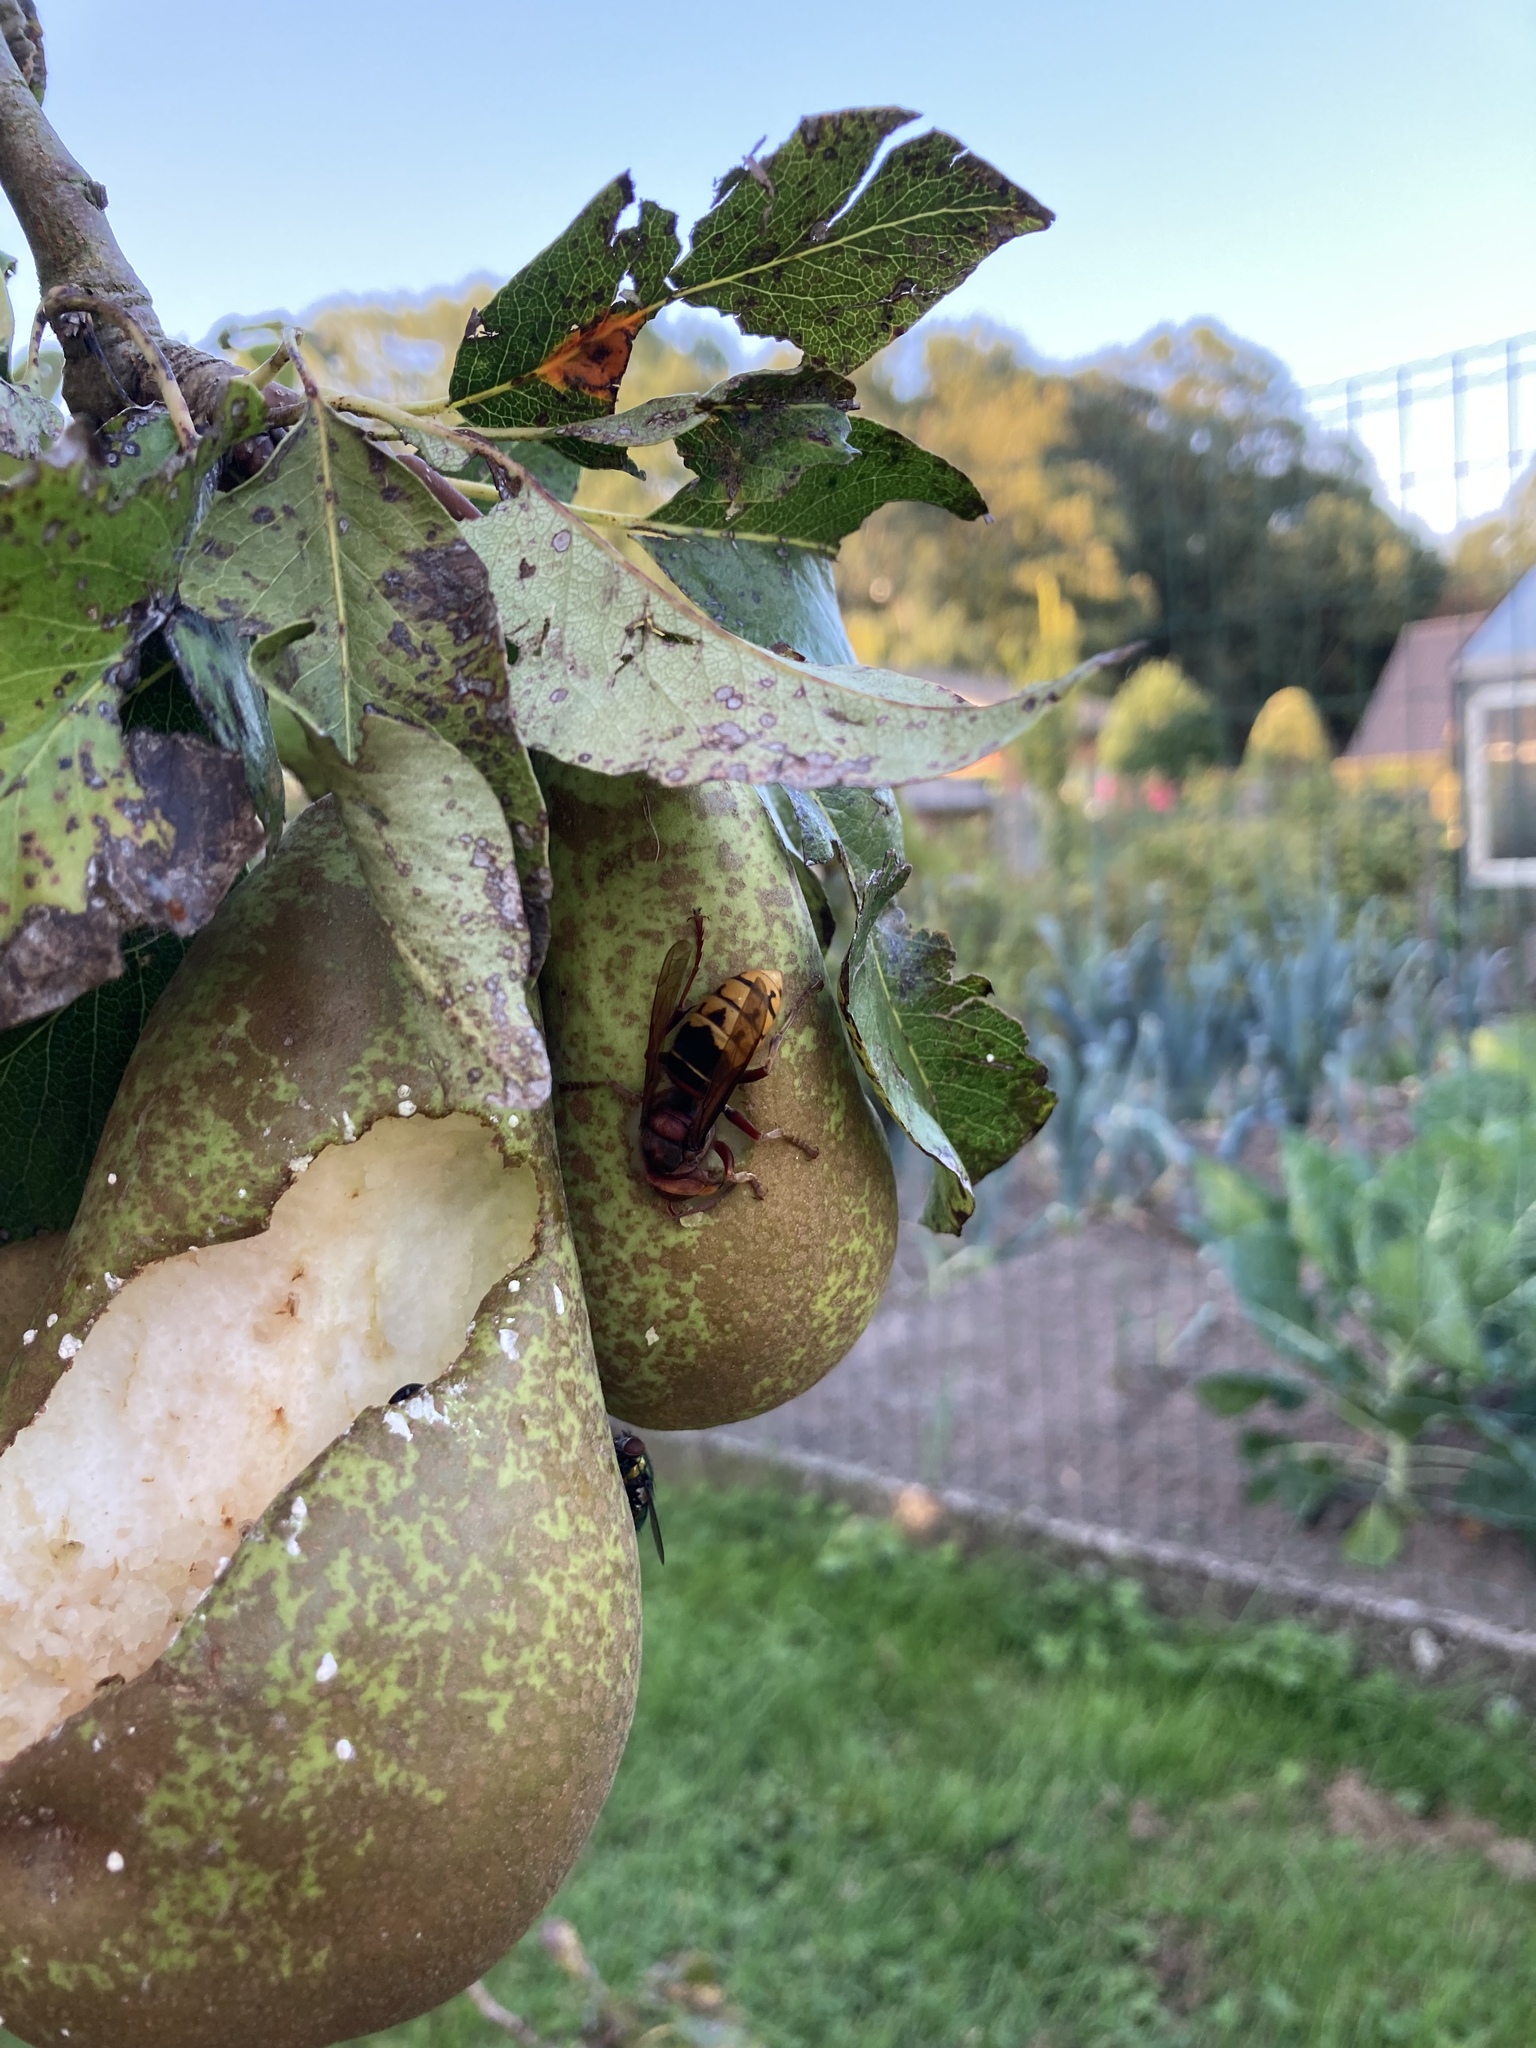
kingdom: Animalia
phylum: Arthropoda
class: Insecta
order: Hymenoptera
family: Vespidae
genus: Vespa
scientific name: Vespa crabro
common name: Hornet
